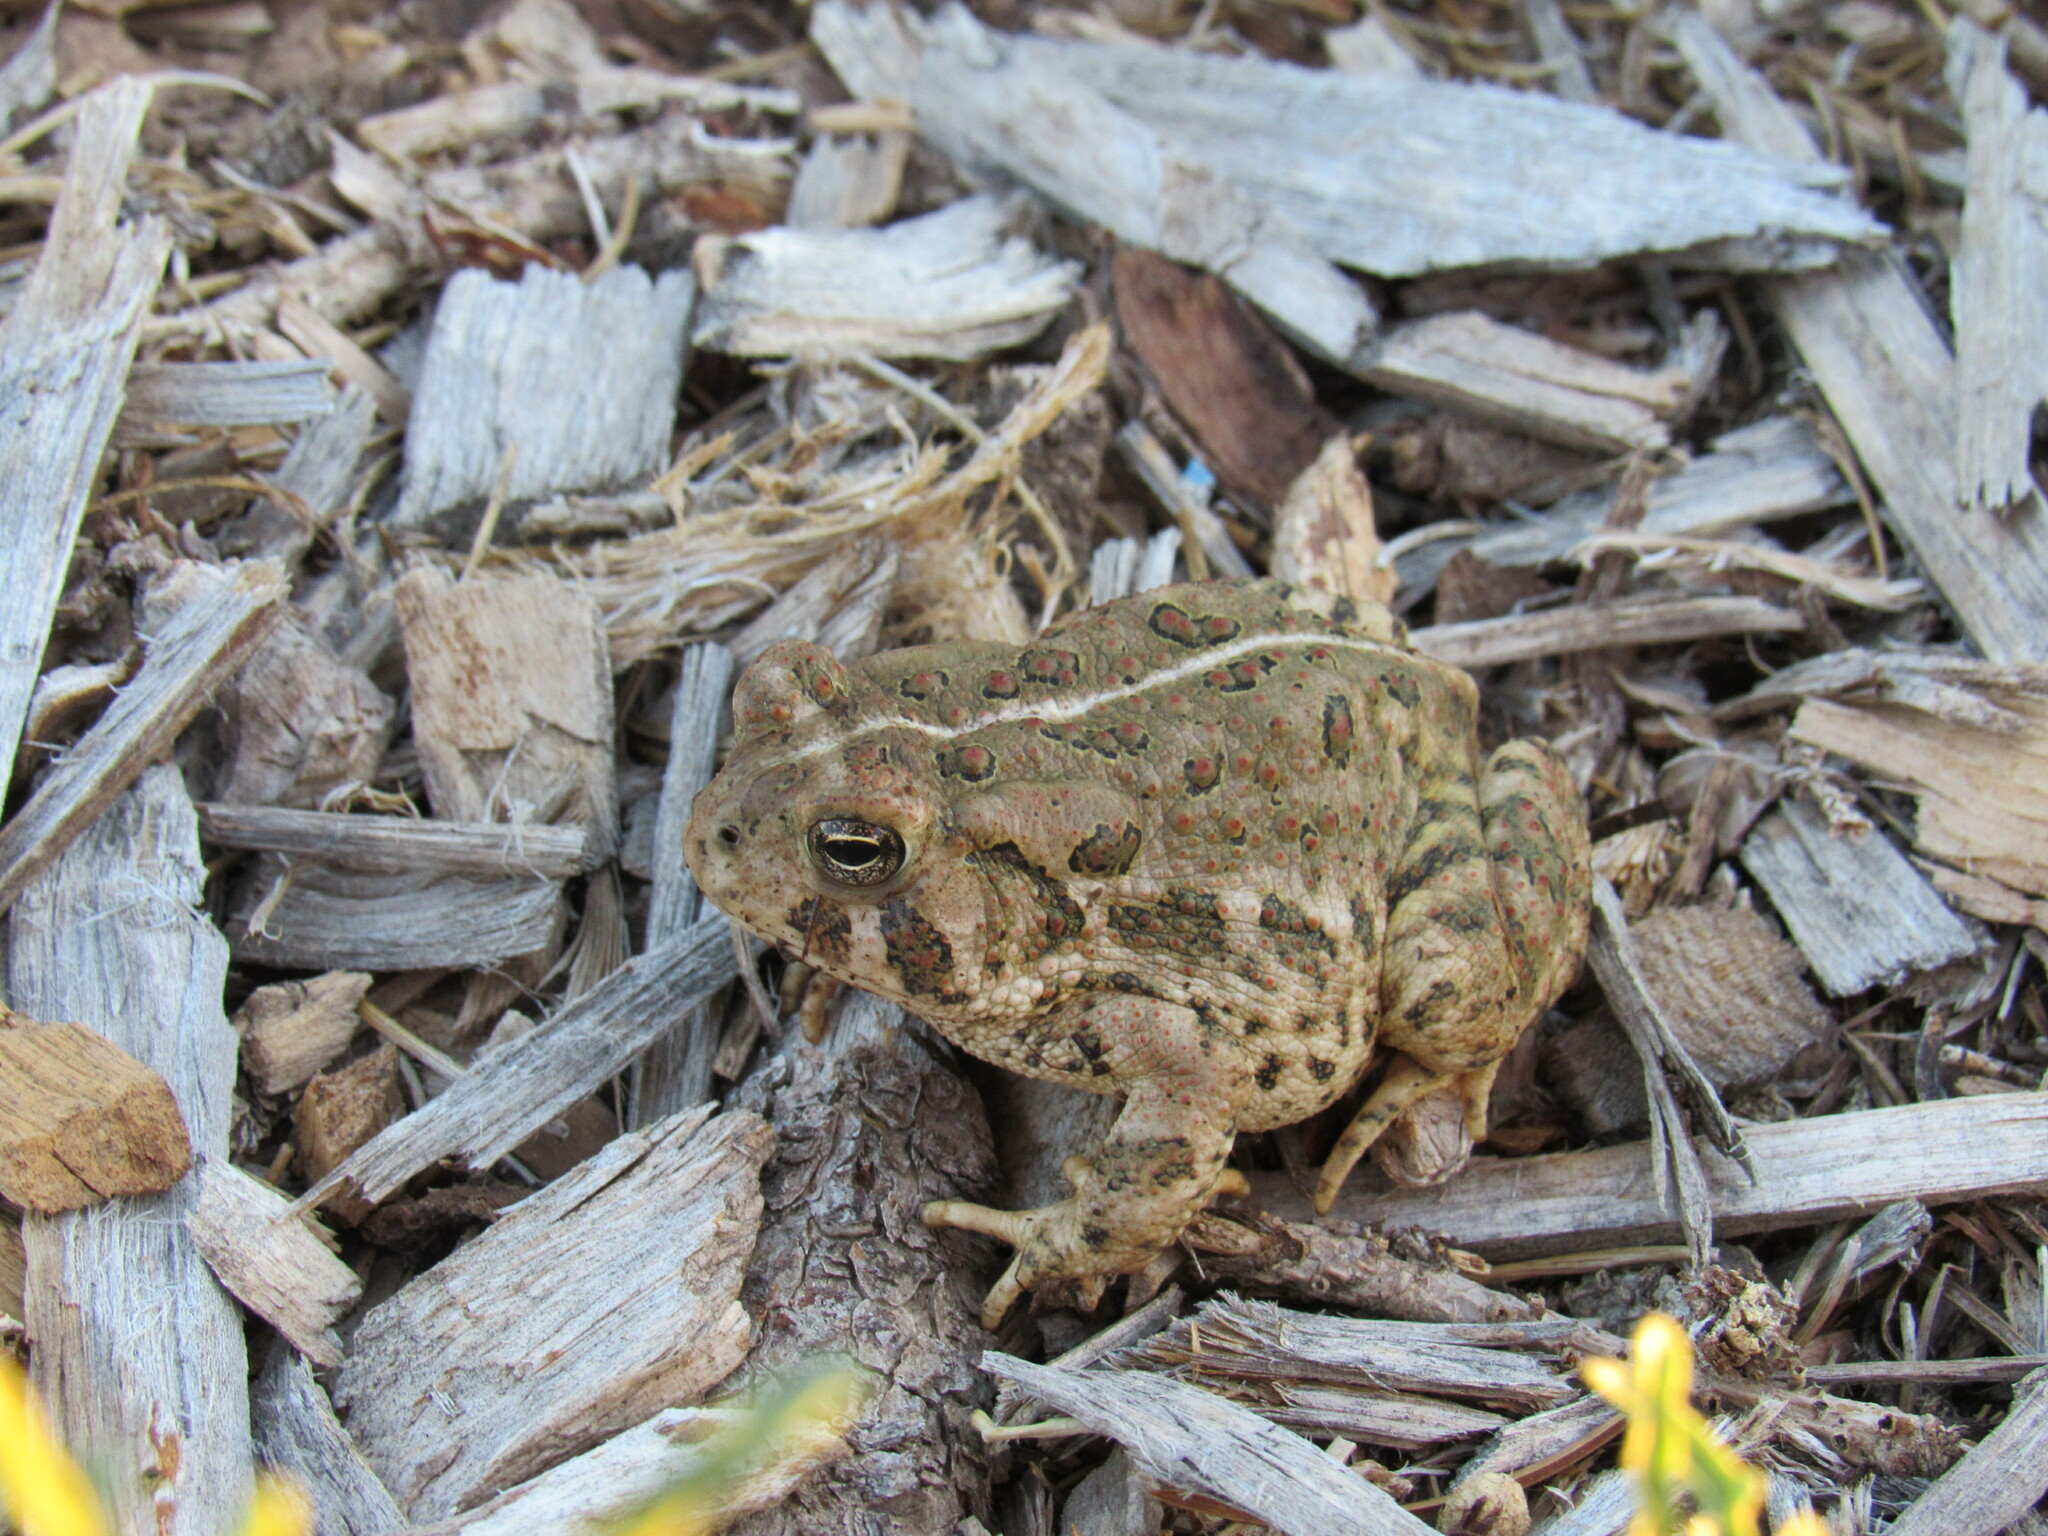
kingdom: Animalia
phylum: Chordata
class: Amphibia
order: Anura
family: Bufonidae
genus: Anaxyrus
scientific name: Anaxyrus woodhousii
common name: Woodhouse's toad
